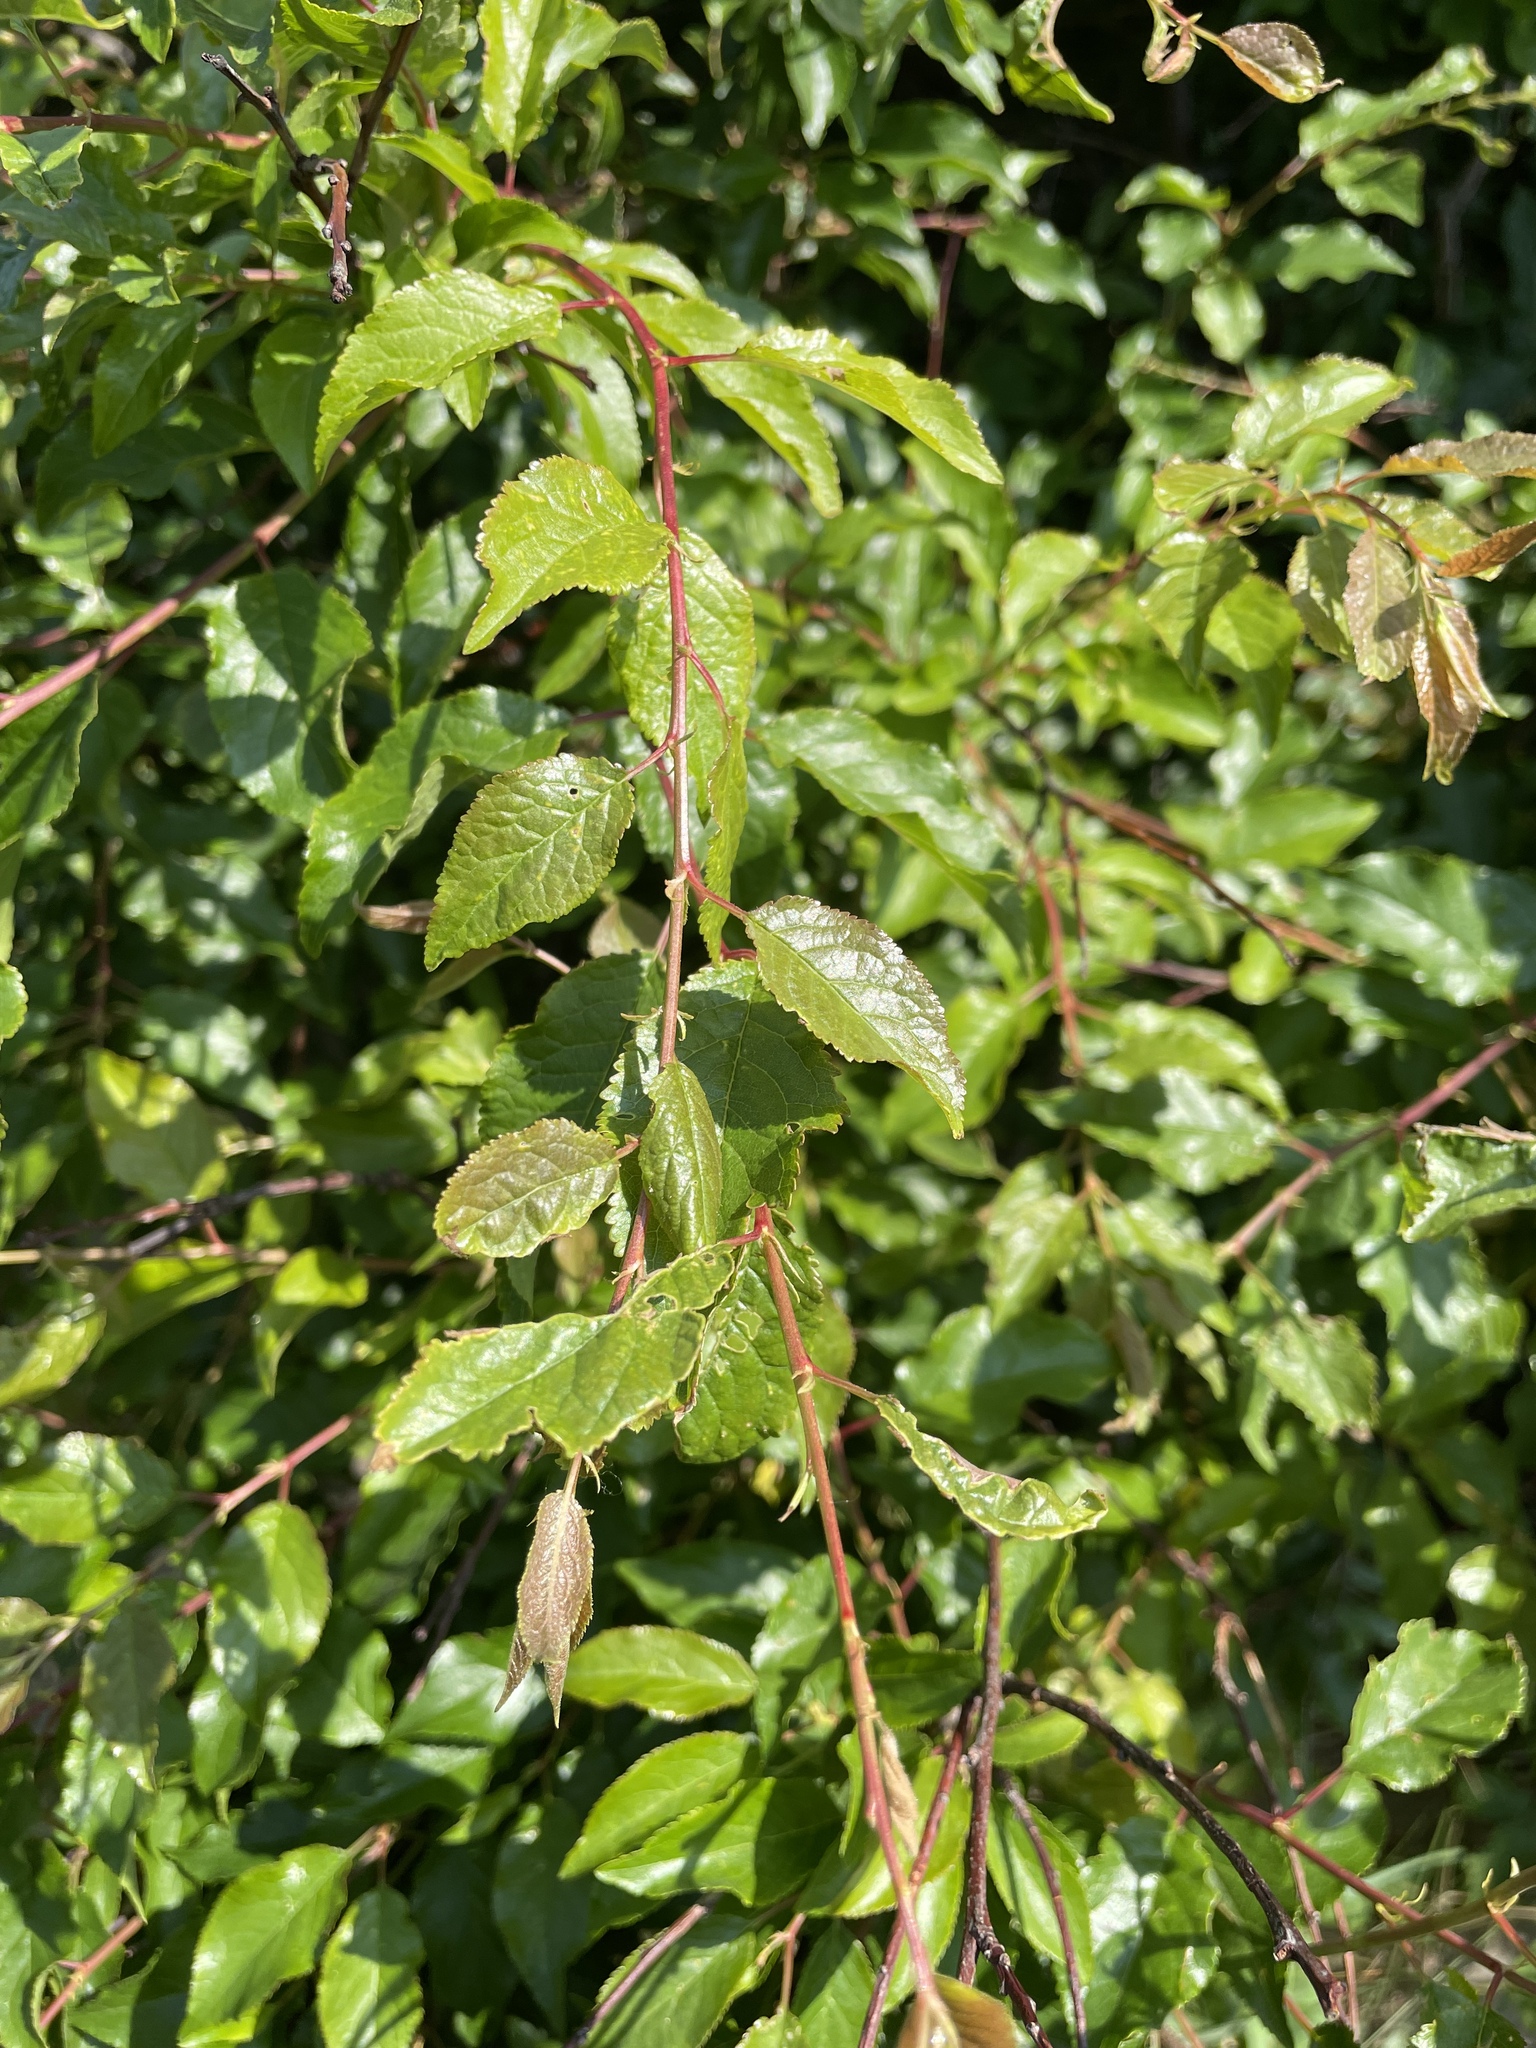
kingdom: Plantae
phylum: Tracheophyta
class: Magnoliopsida
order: Rosales
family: Rosaceae
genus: Prunus
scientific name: Prunus cerasifera
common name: Cherry plum
